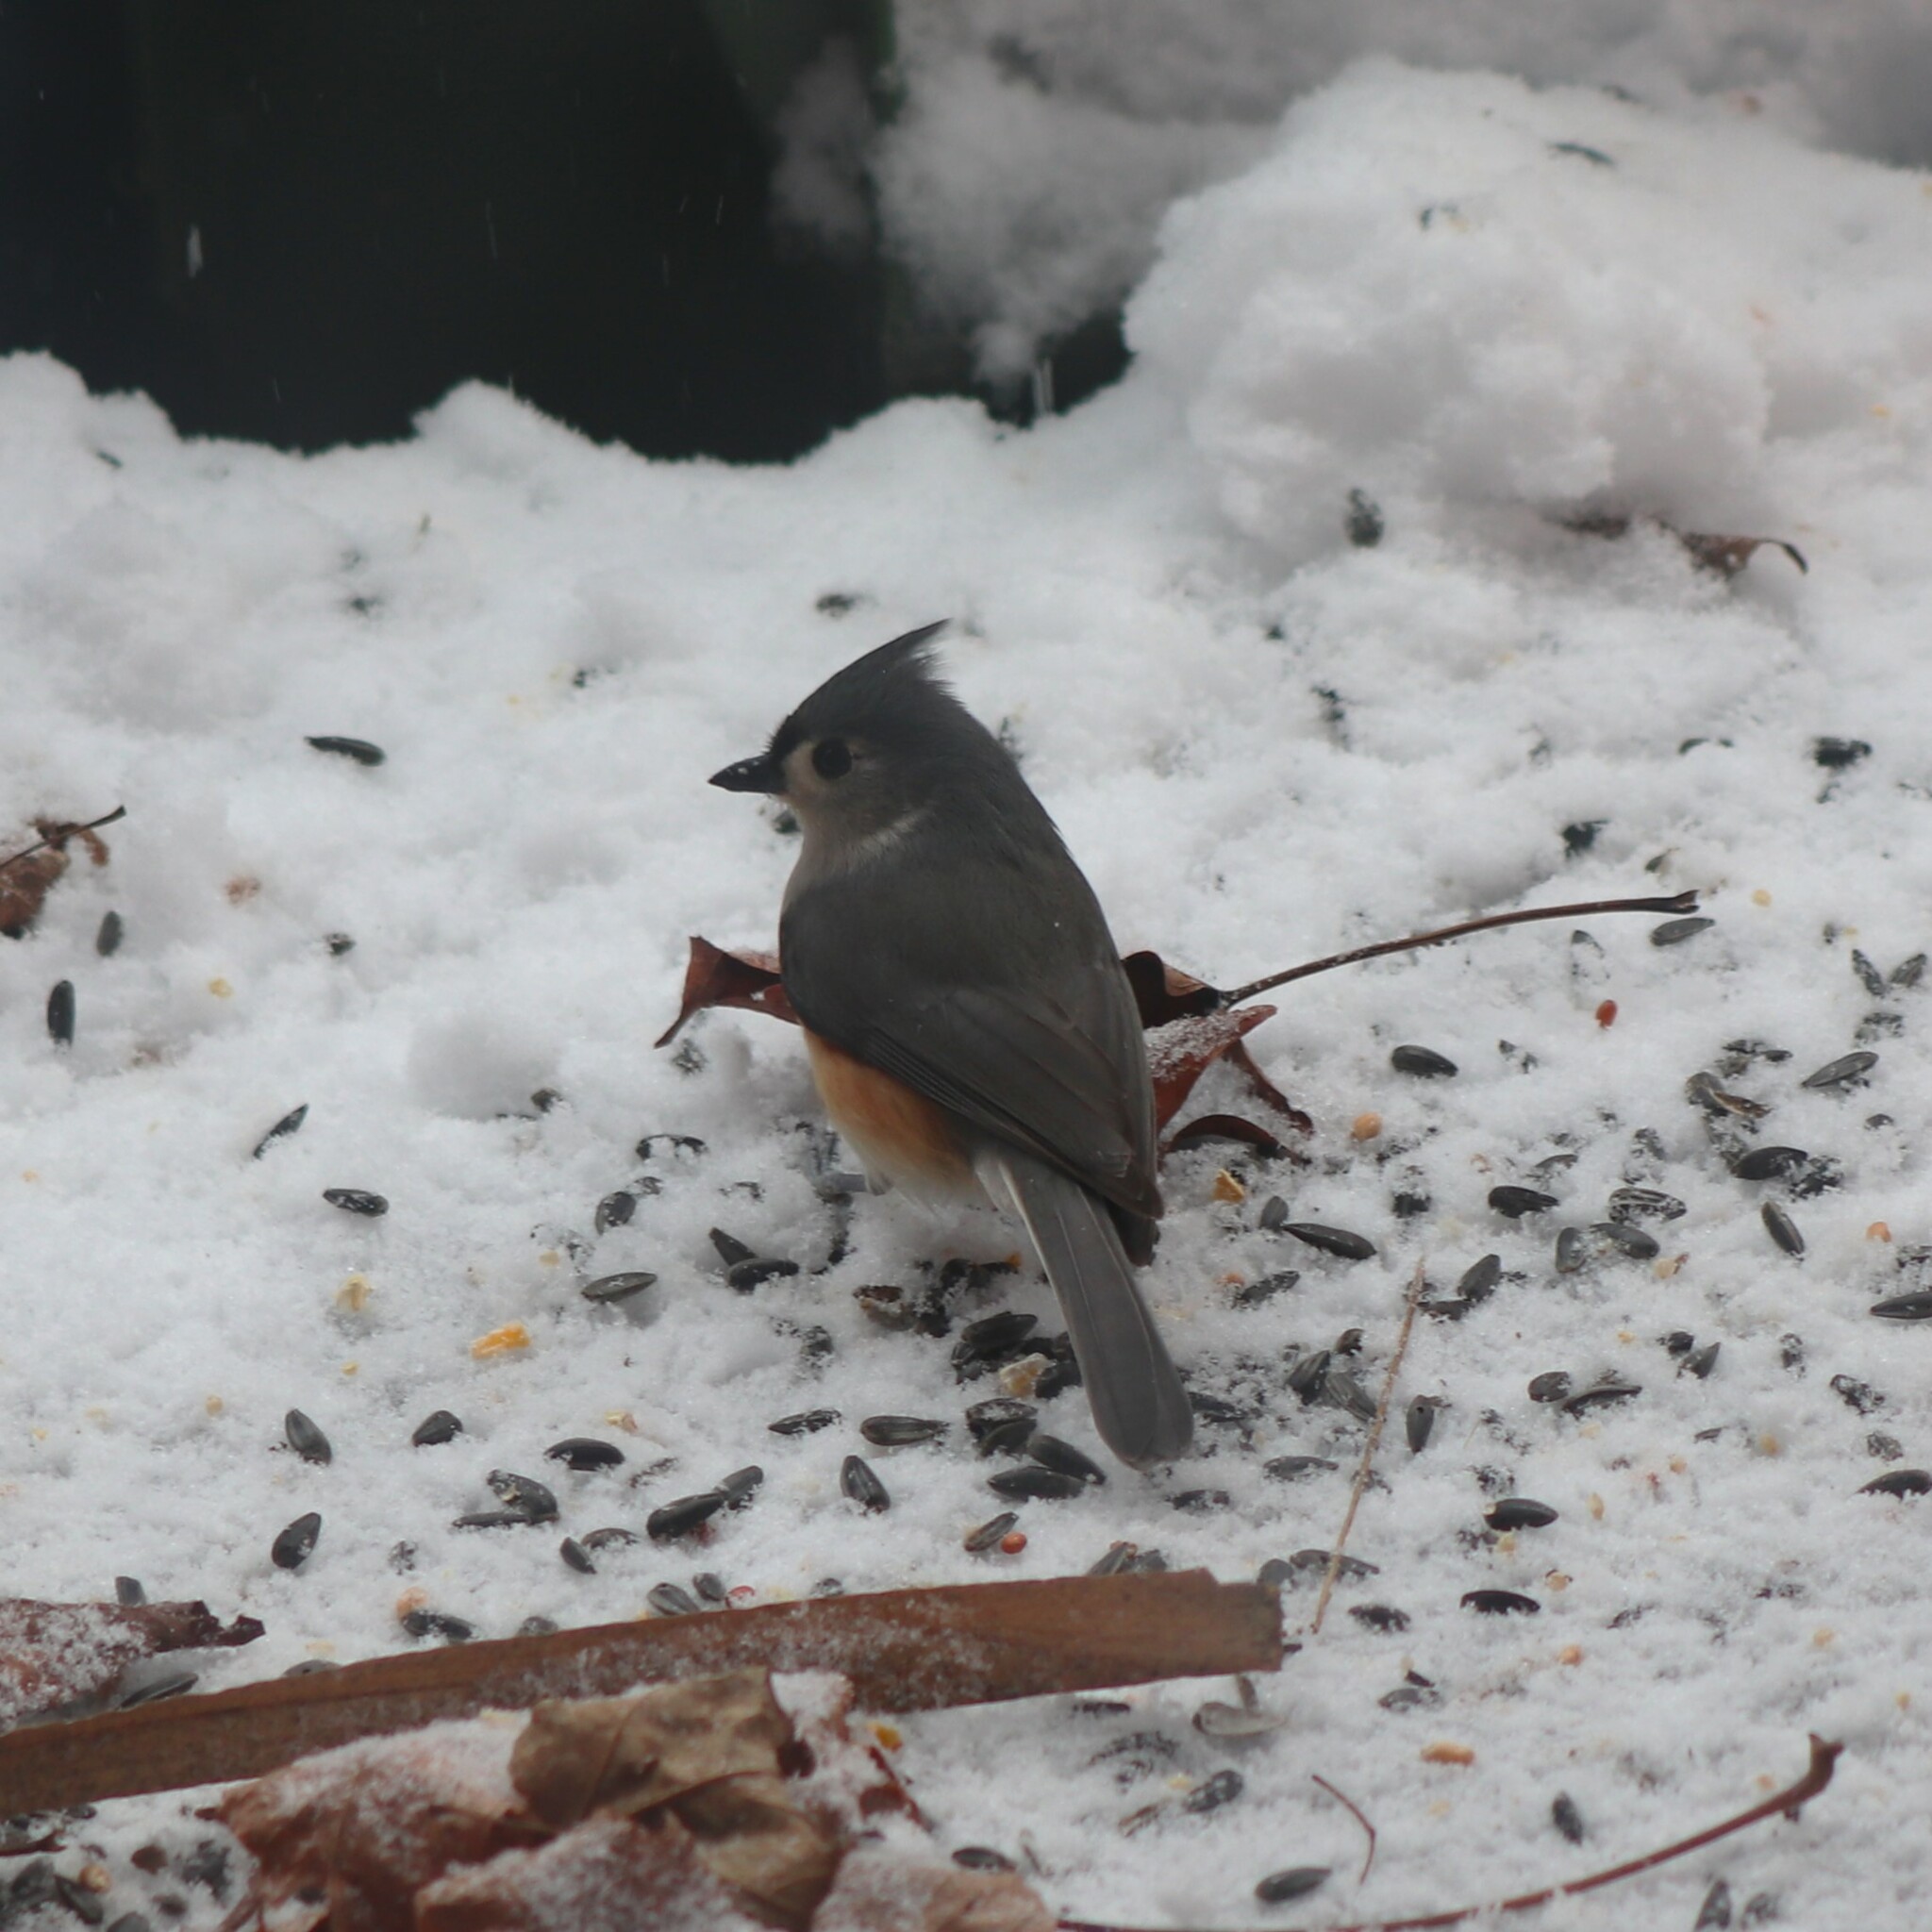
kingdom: Animalia
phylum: Chordata
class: Aves
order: Passeriformes
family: Paridae
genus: Baeolophus
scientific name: Baeolophus bicolor
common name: Tufted titmouse
